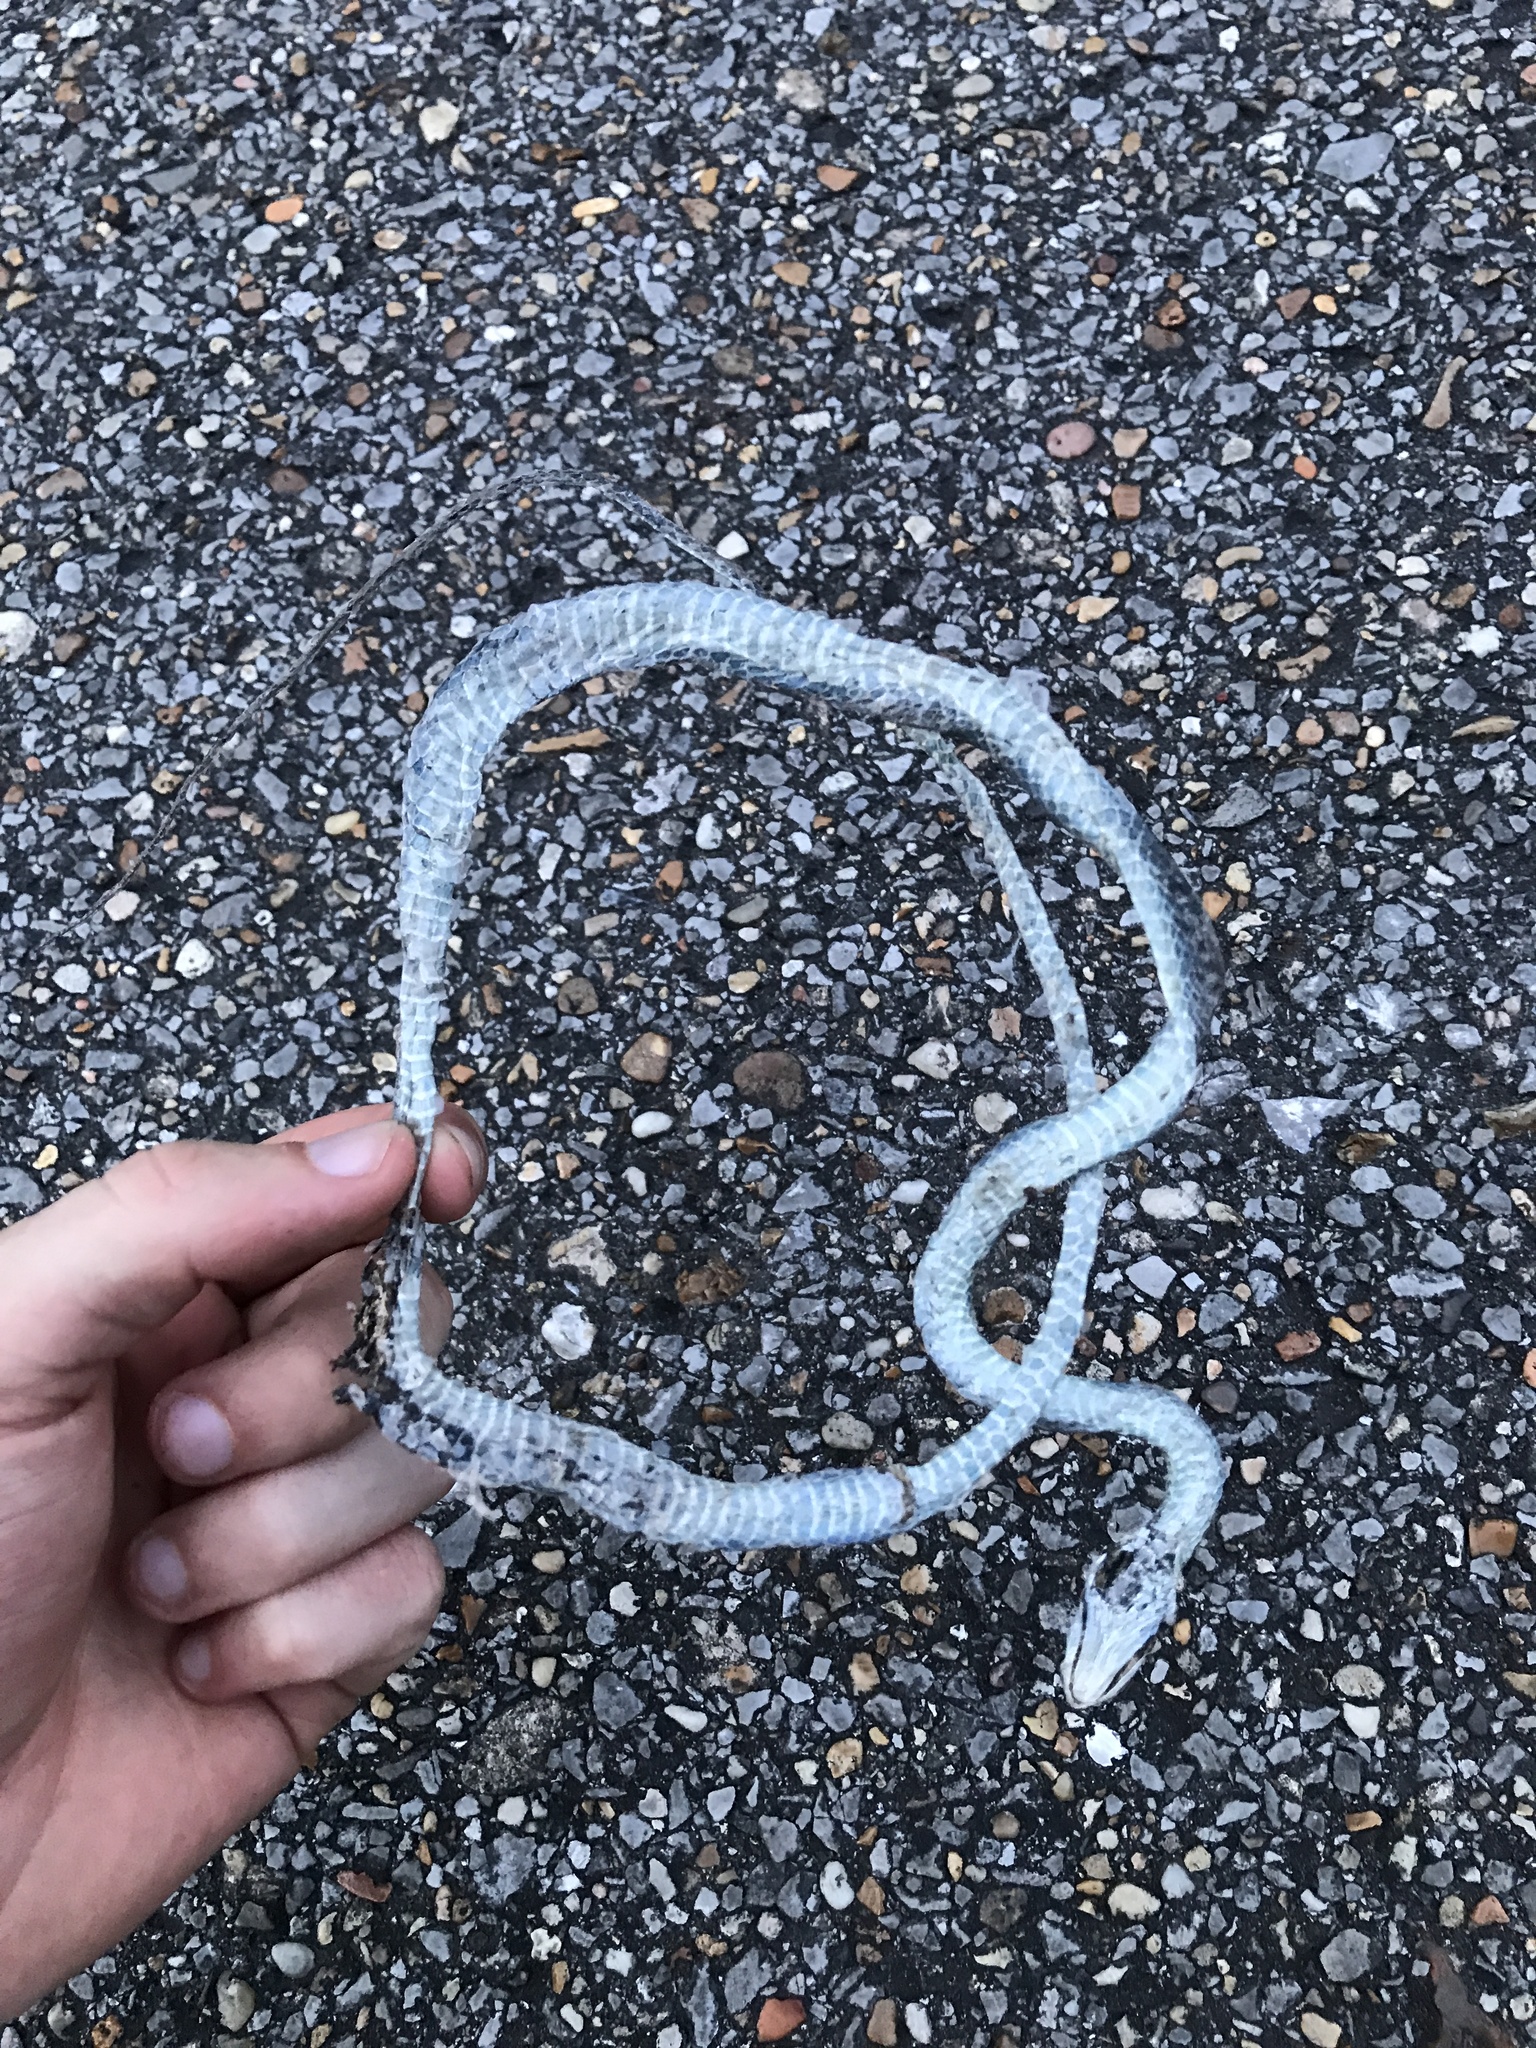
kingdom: Animalia
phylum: Chordata
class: Squamata
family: Colubridae
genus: Opheodrys
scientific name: Opheodrys aestivus
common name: Rough greensnake
